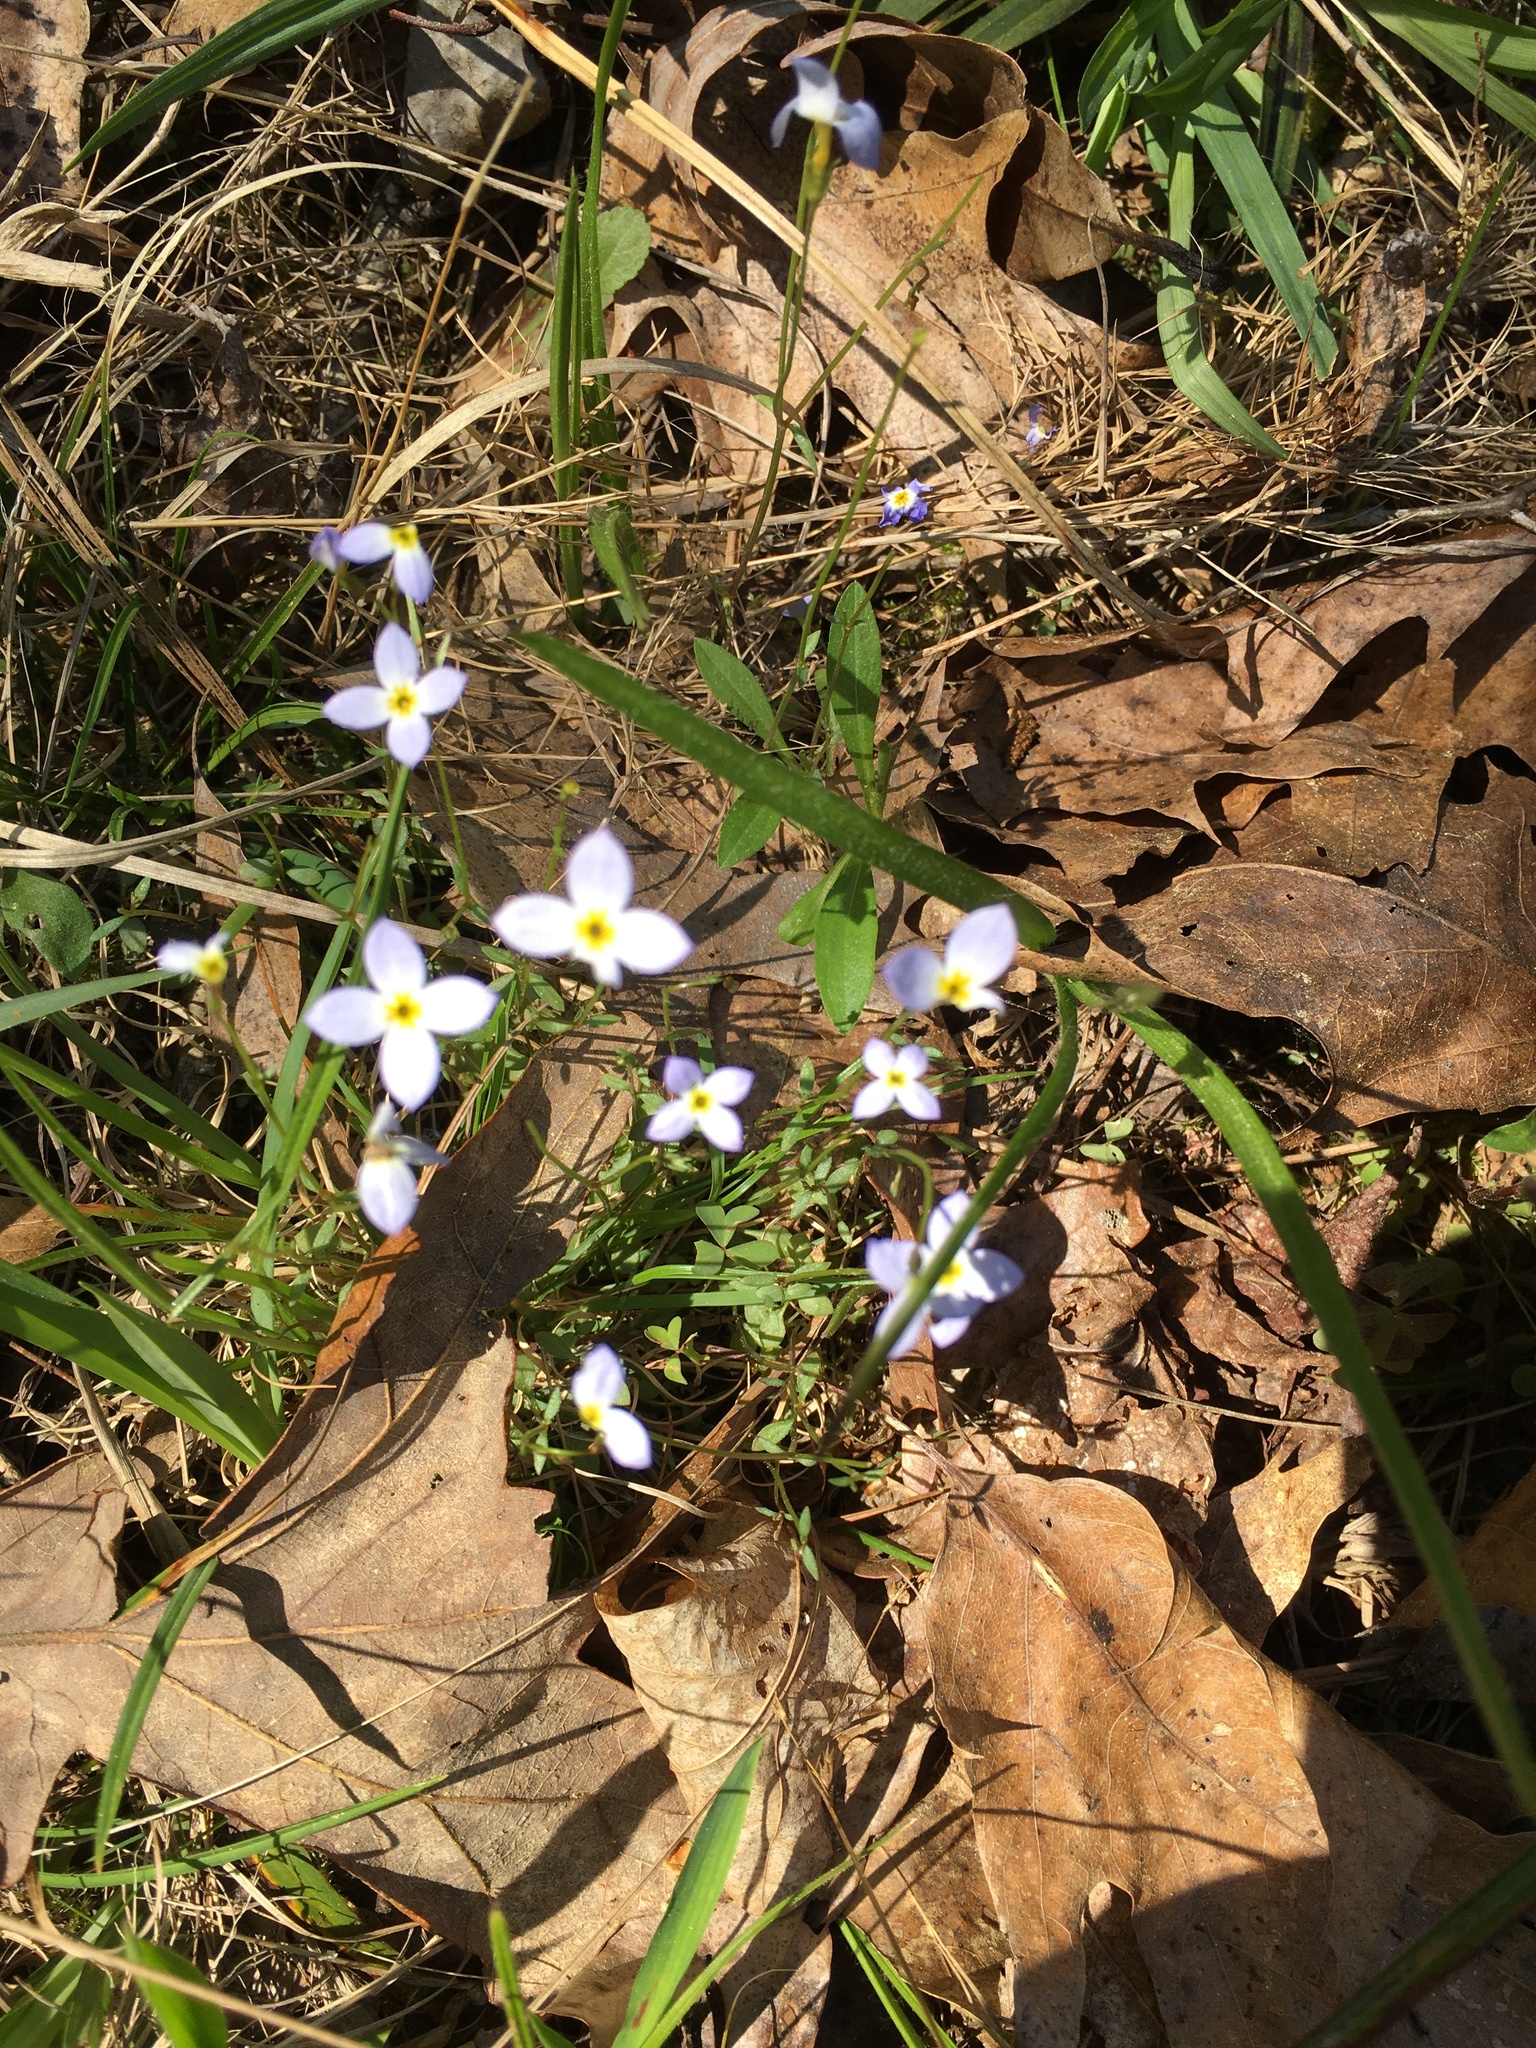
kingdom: Plantae
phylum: Tracheophyta
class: Magnoliopsida
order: Gentianales
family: Rubiaceae
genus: Houstonia
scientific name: Houstonia caerulea
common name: Bluets
